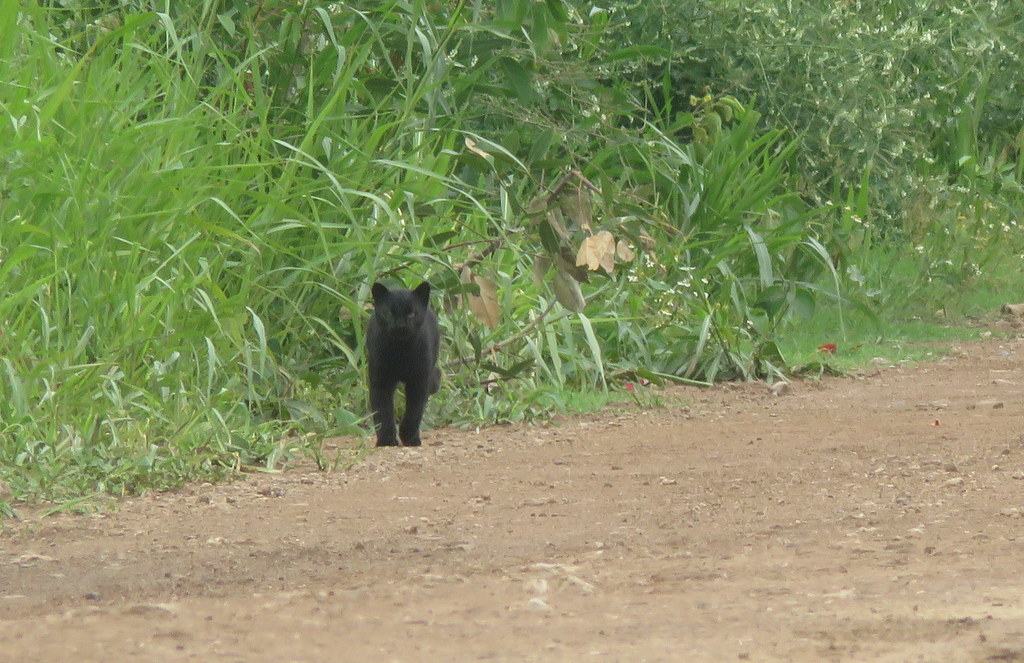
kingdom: Animalia
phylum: Chordata
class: Mammalia
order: Carnivora
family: Felidae
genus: Leopardus
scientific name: Leopardus geoffroyi
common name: Geoffroy's cat
